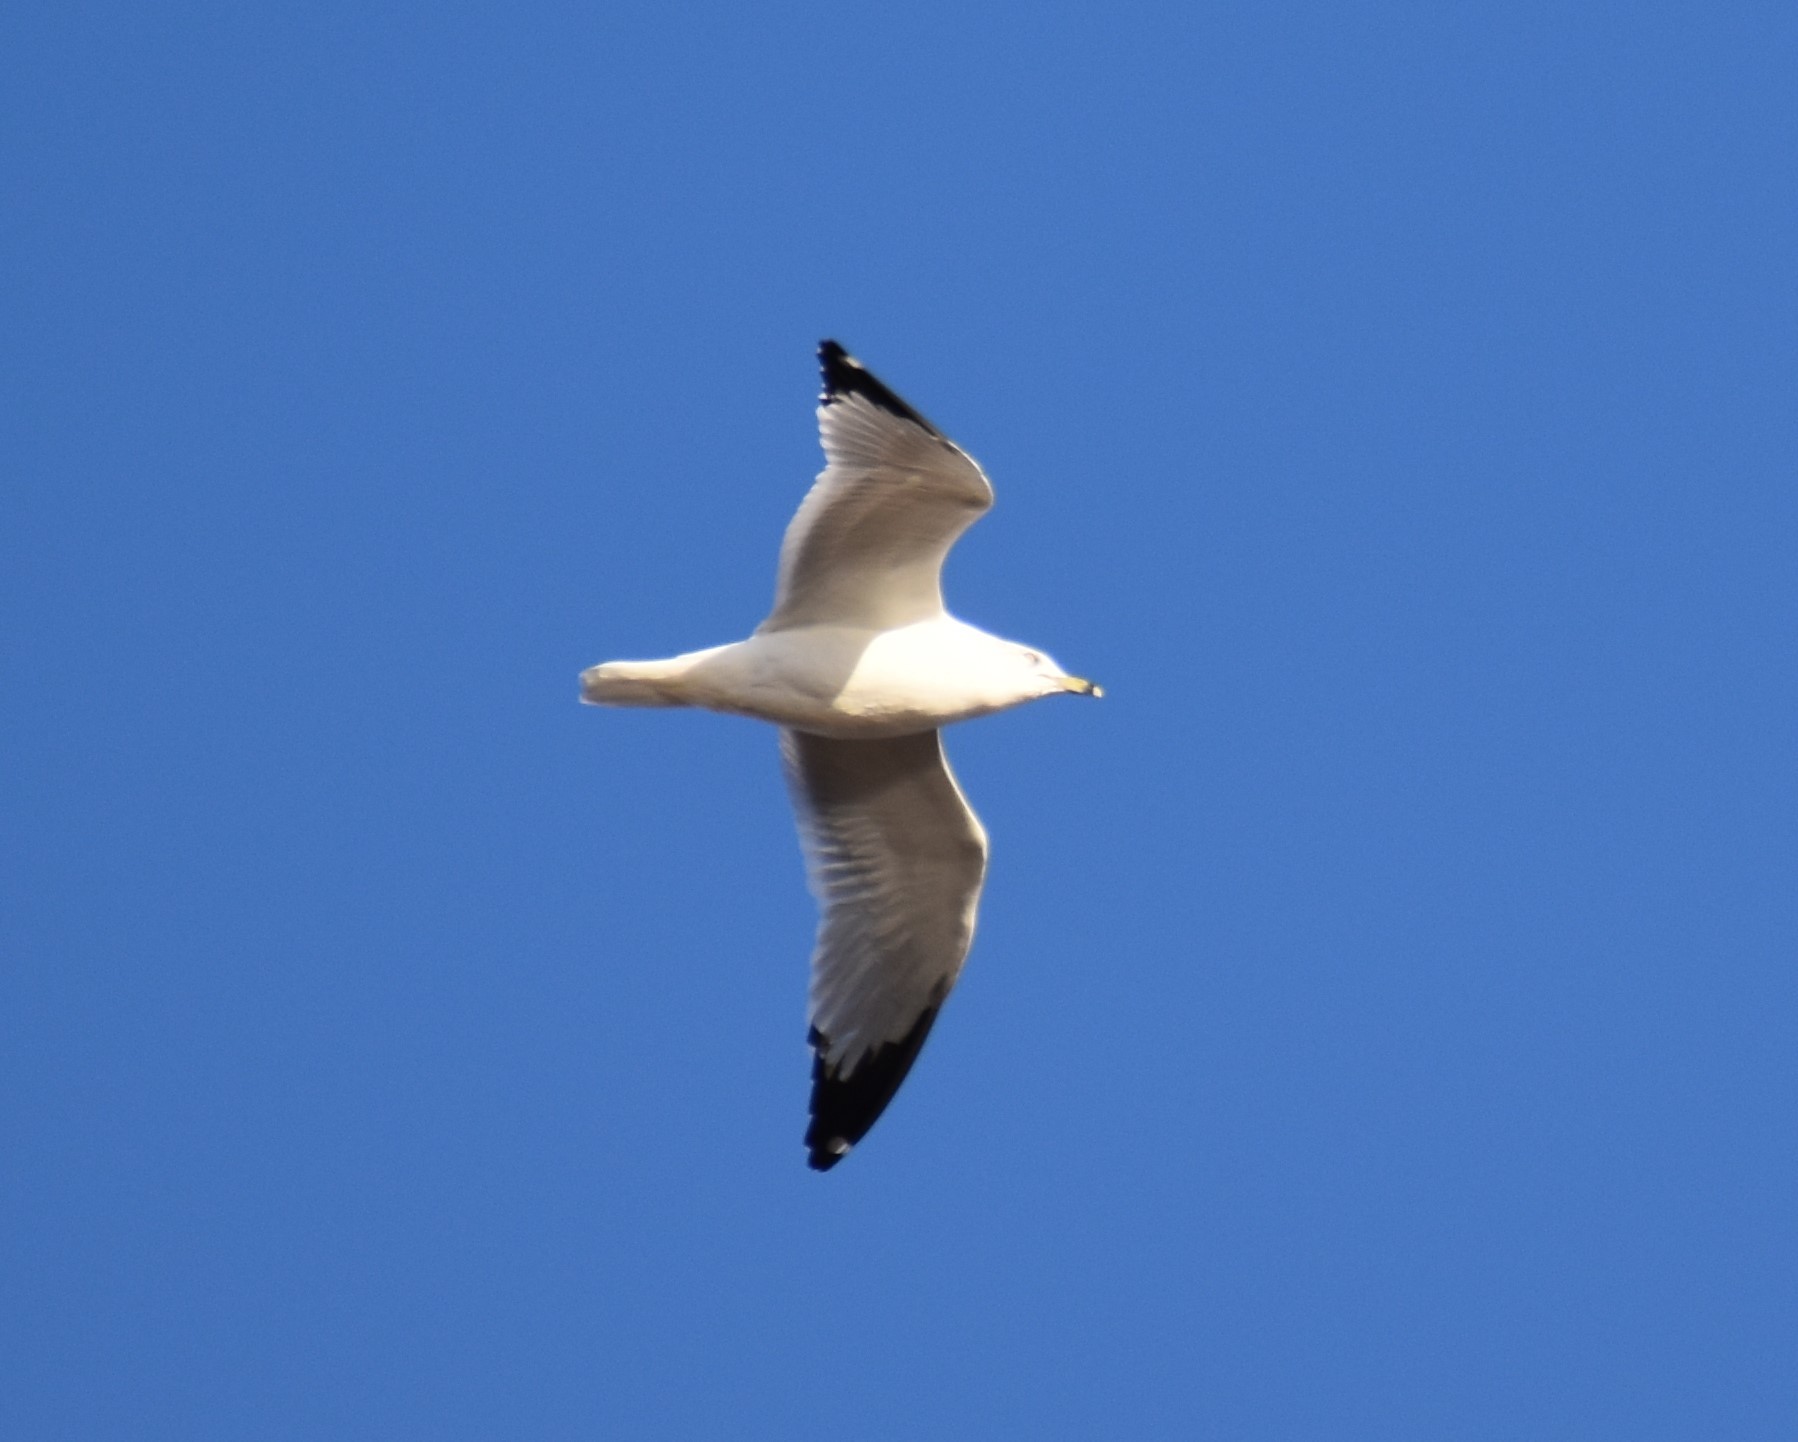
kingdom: Animalia
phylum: Chordata
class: Aves
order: Charadriiformes
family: Laridae
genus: Larus
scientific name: Larus delawarensis
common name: Ring-billed gull
